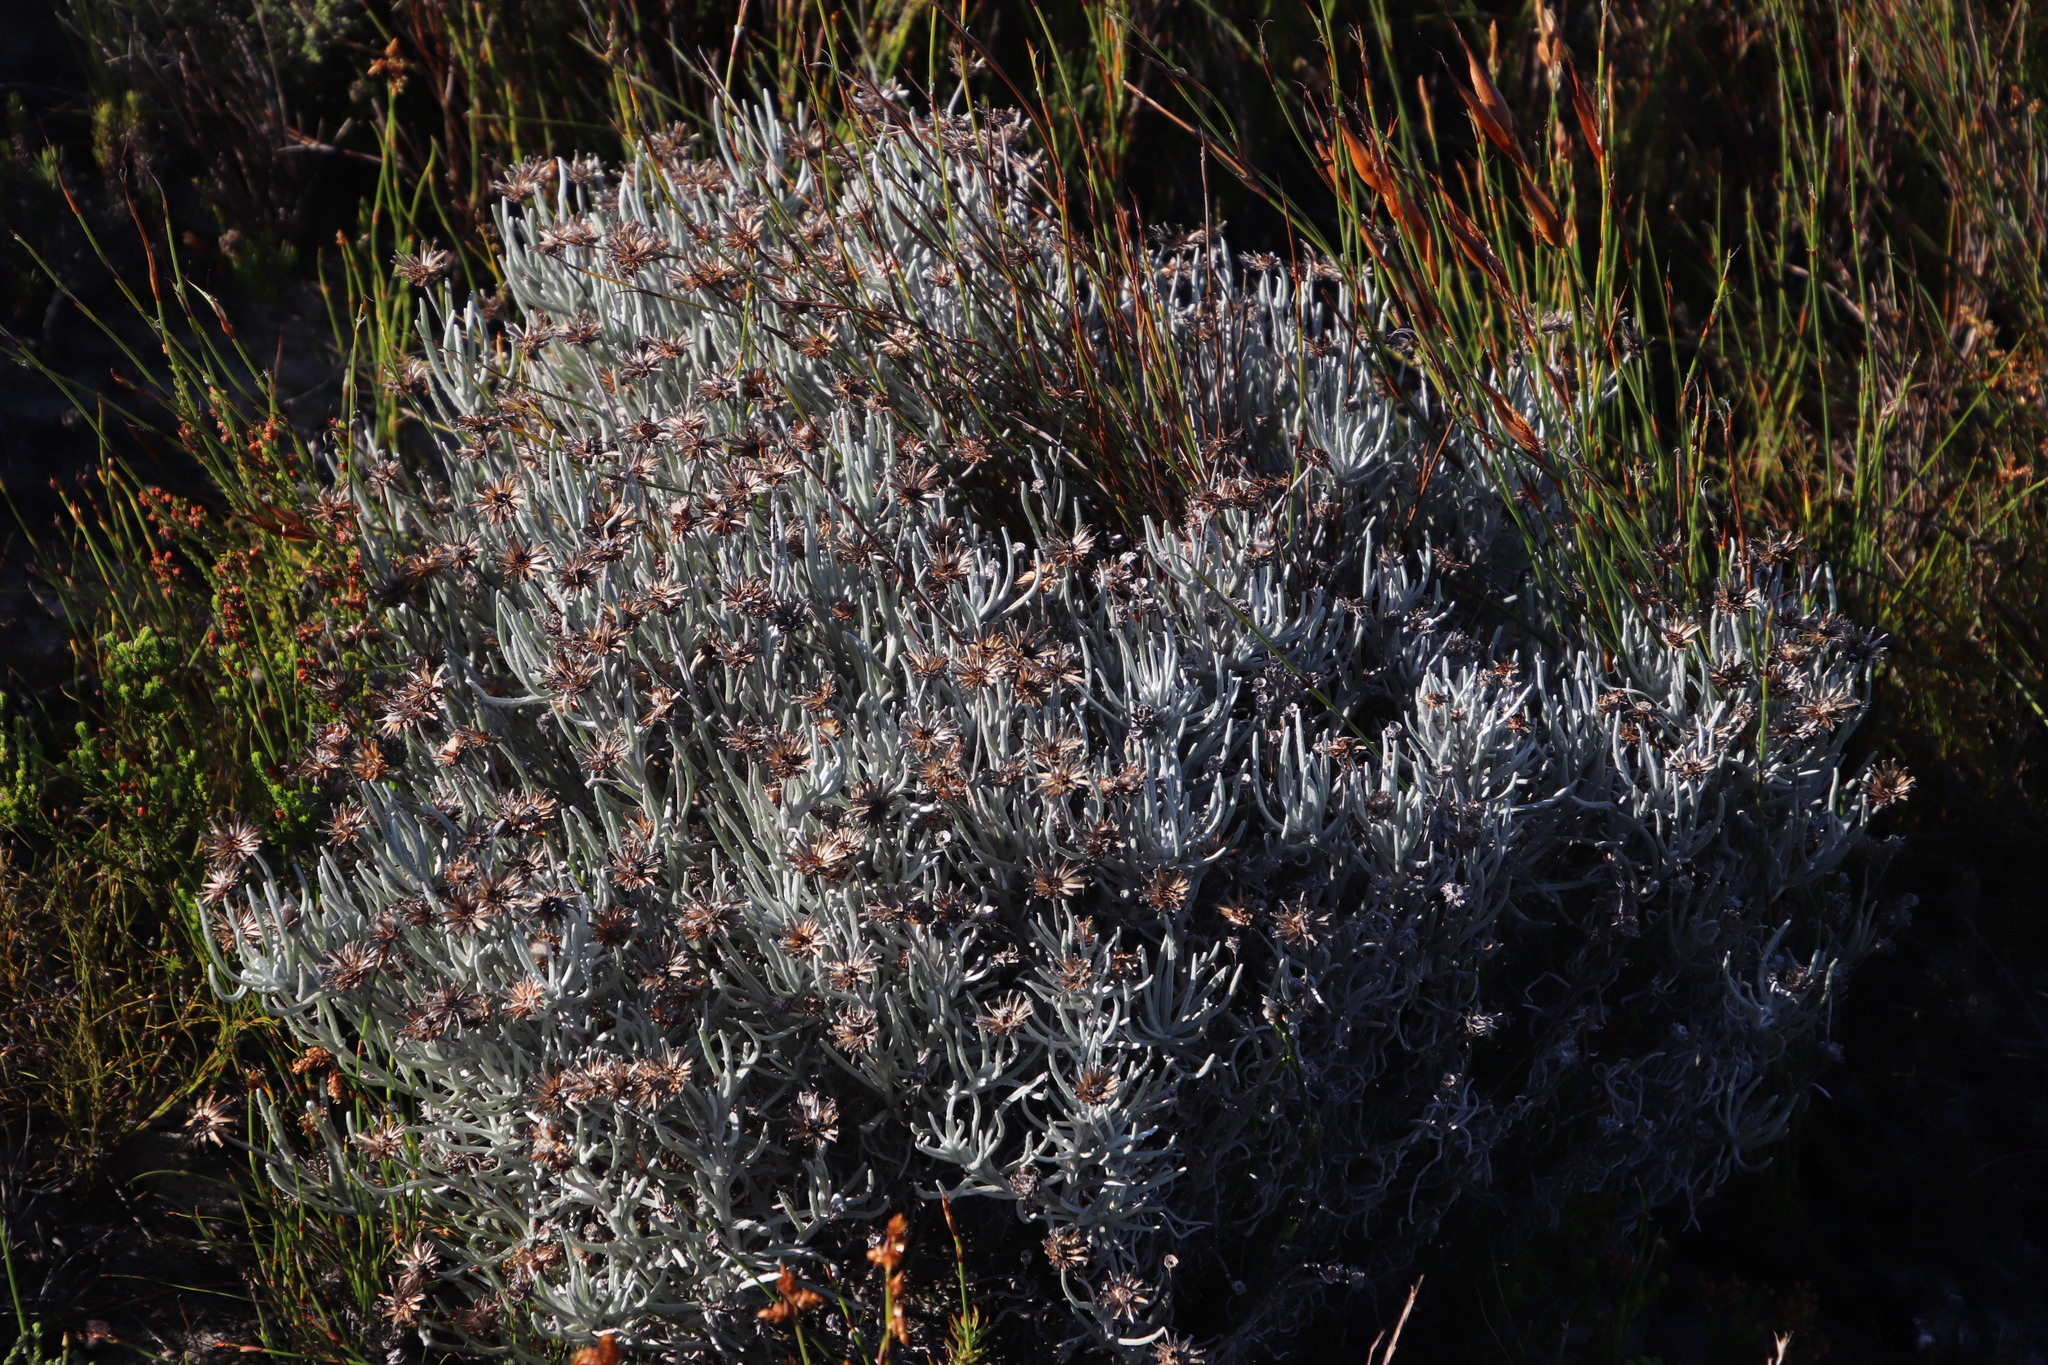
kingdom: Plantae
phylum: Tracheophyta
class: Magnoliopsida
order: Asterales
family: Asteraceae
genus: Syncarpha
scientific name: Syncarpha gnaphaloides
